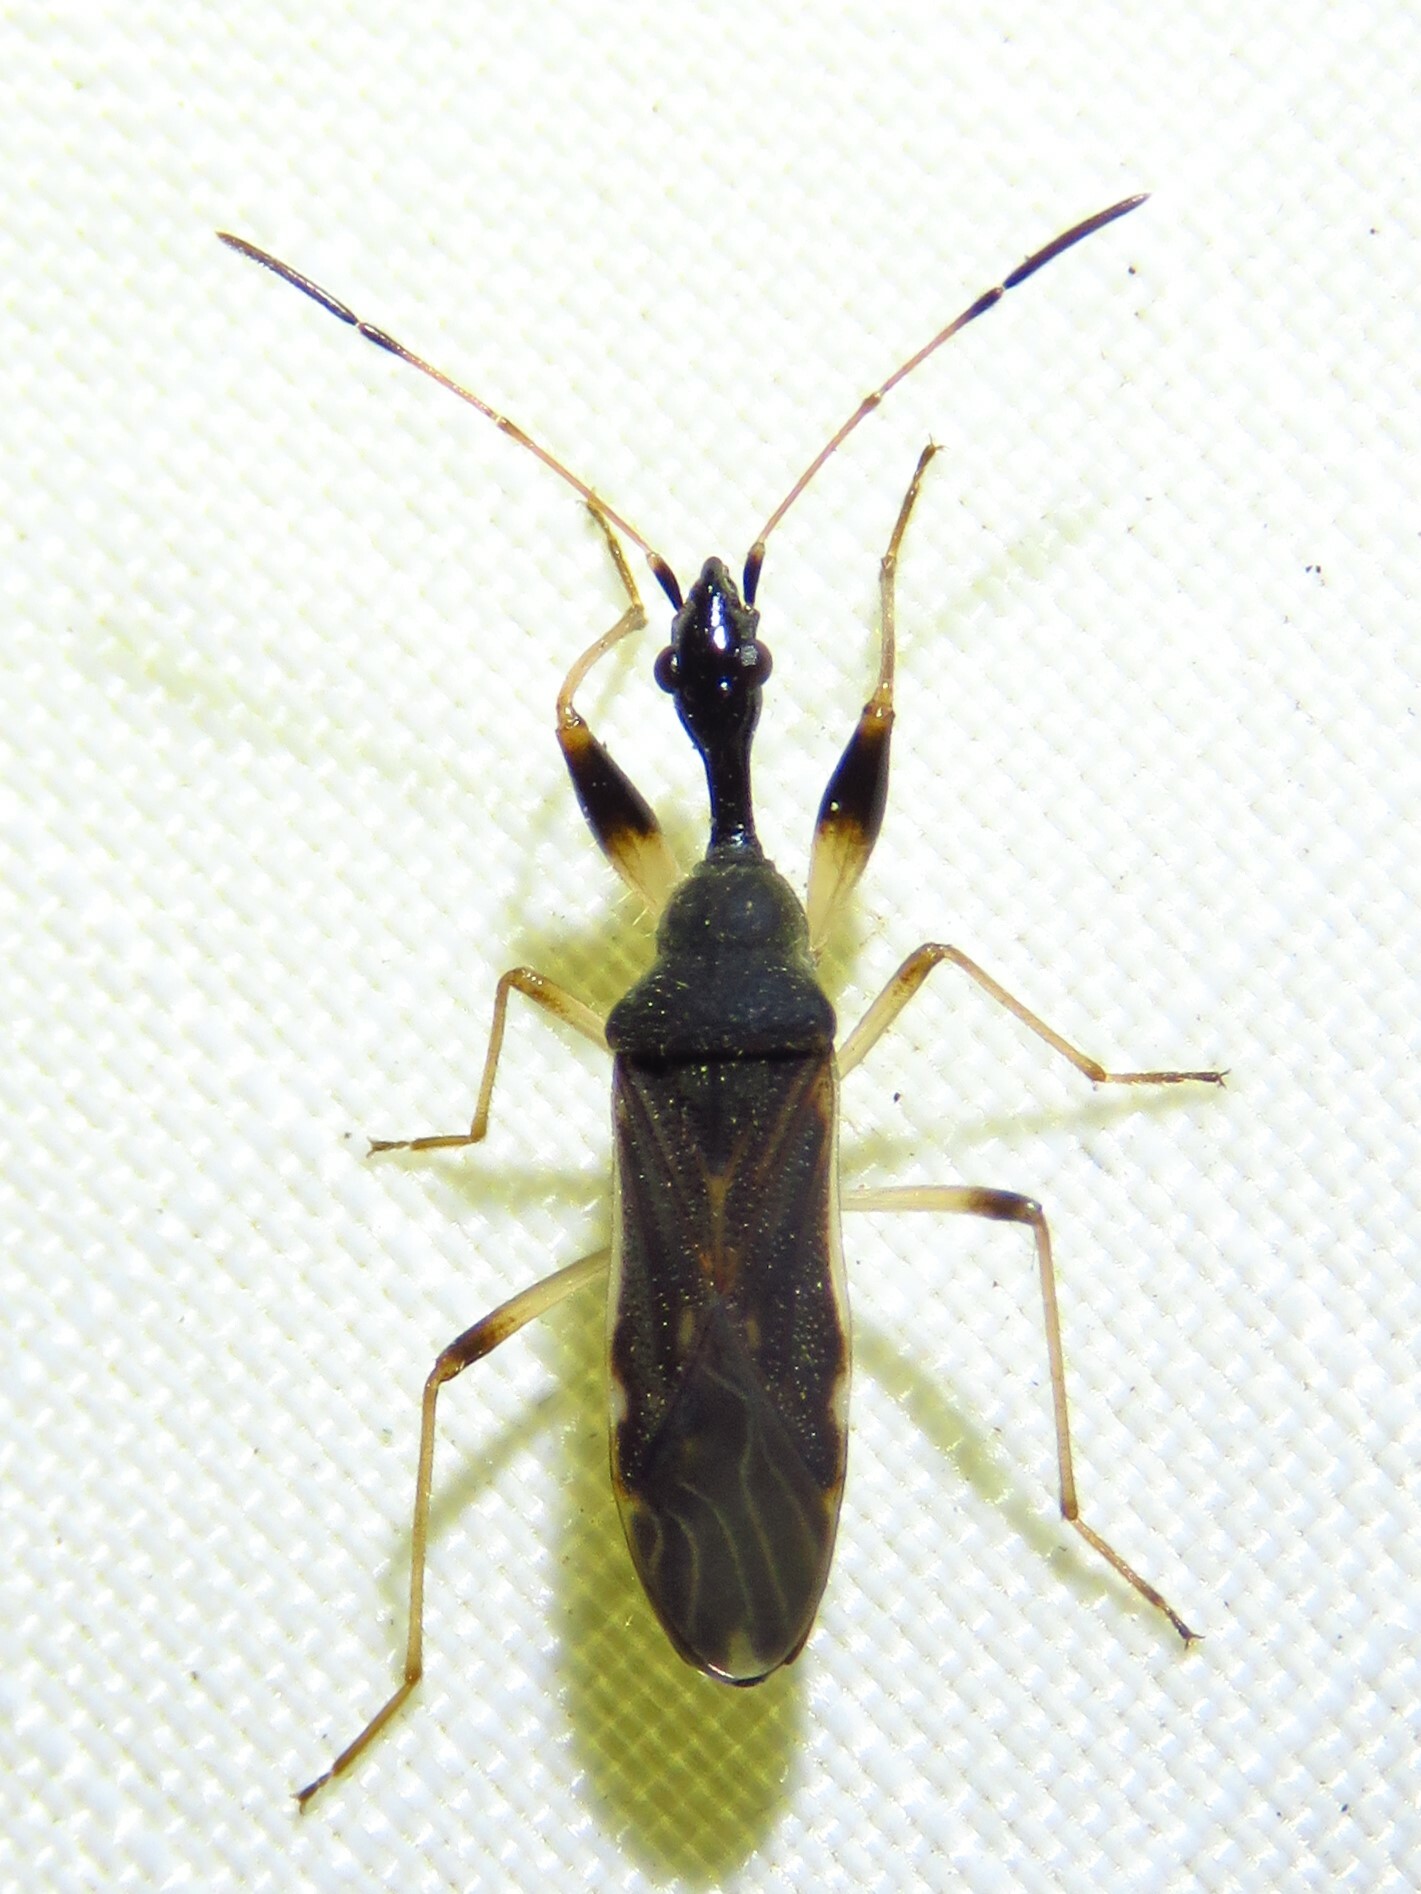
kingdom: Animalia
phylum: Arthropoda
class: Insecta
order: Hemiptera
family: Rhyparochromidae
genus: Myodocha
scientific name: Myodocha serripes
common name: Long-necked seed bug
